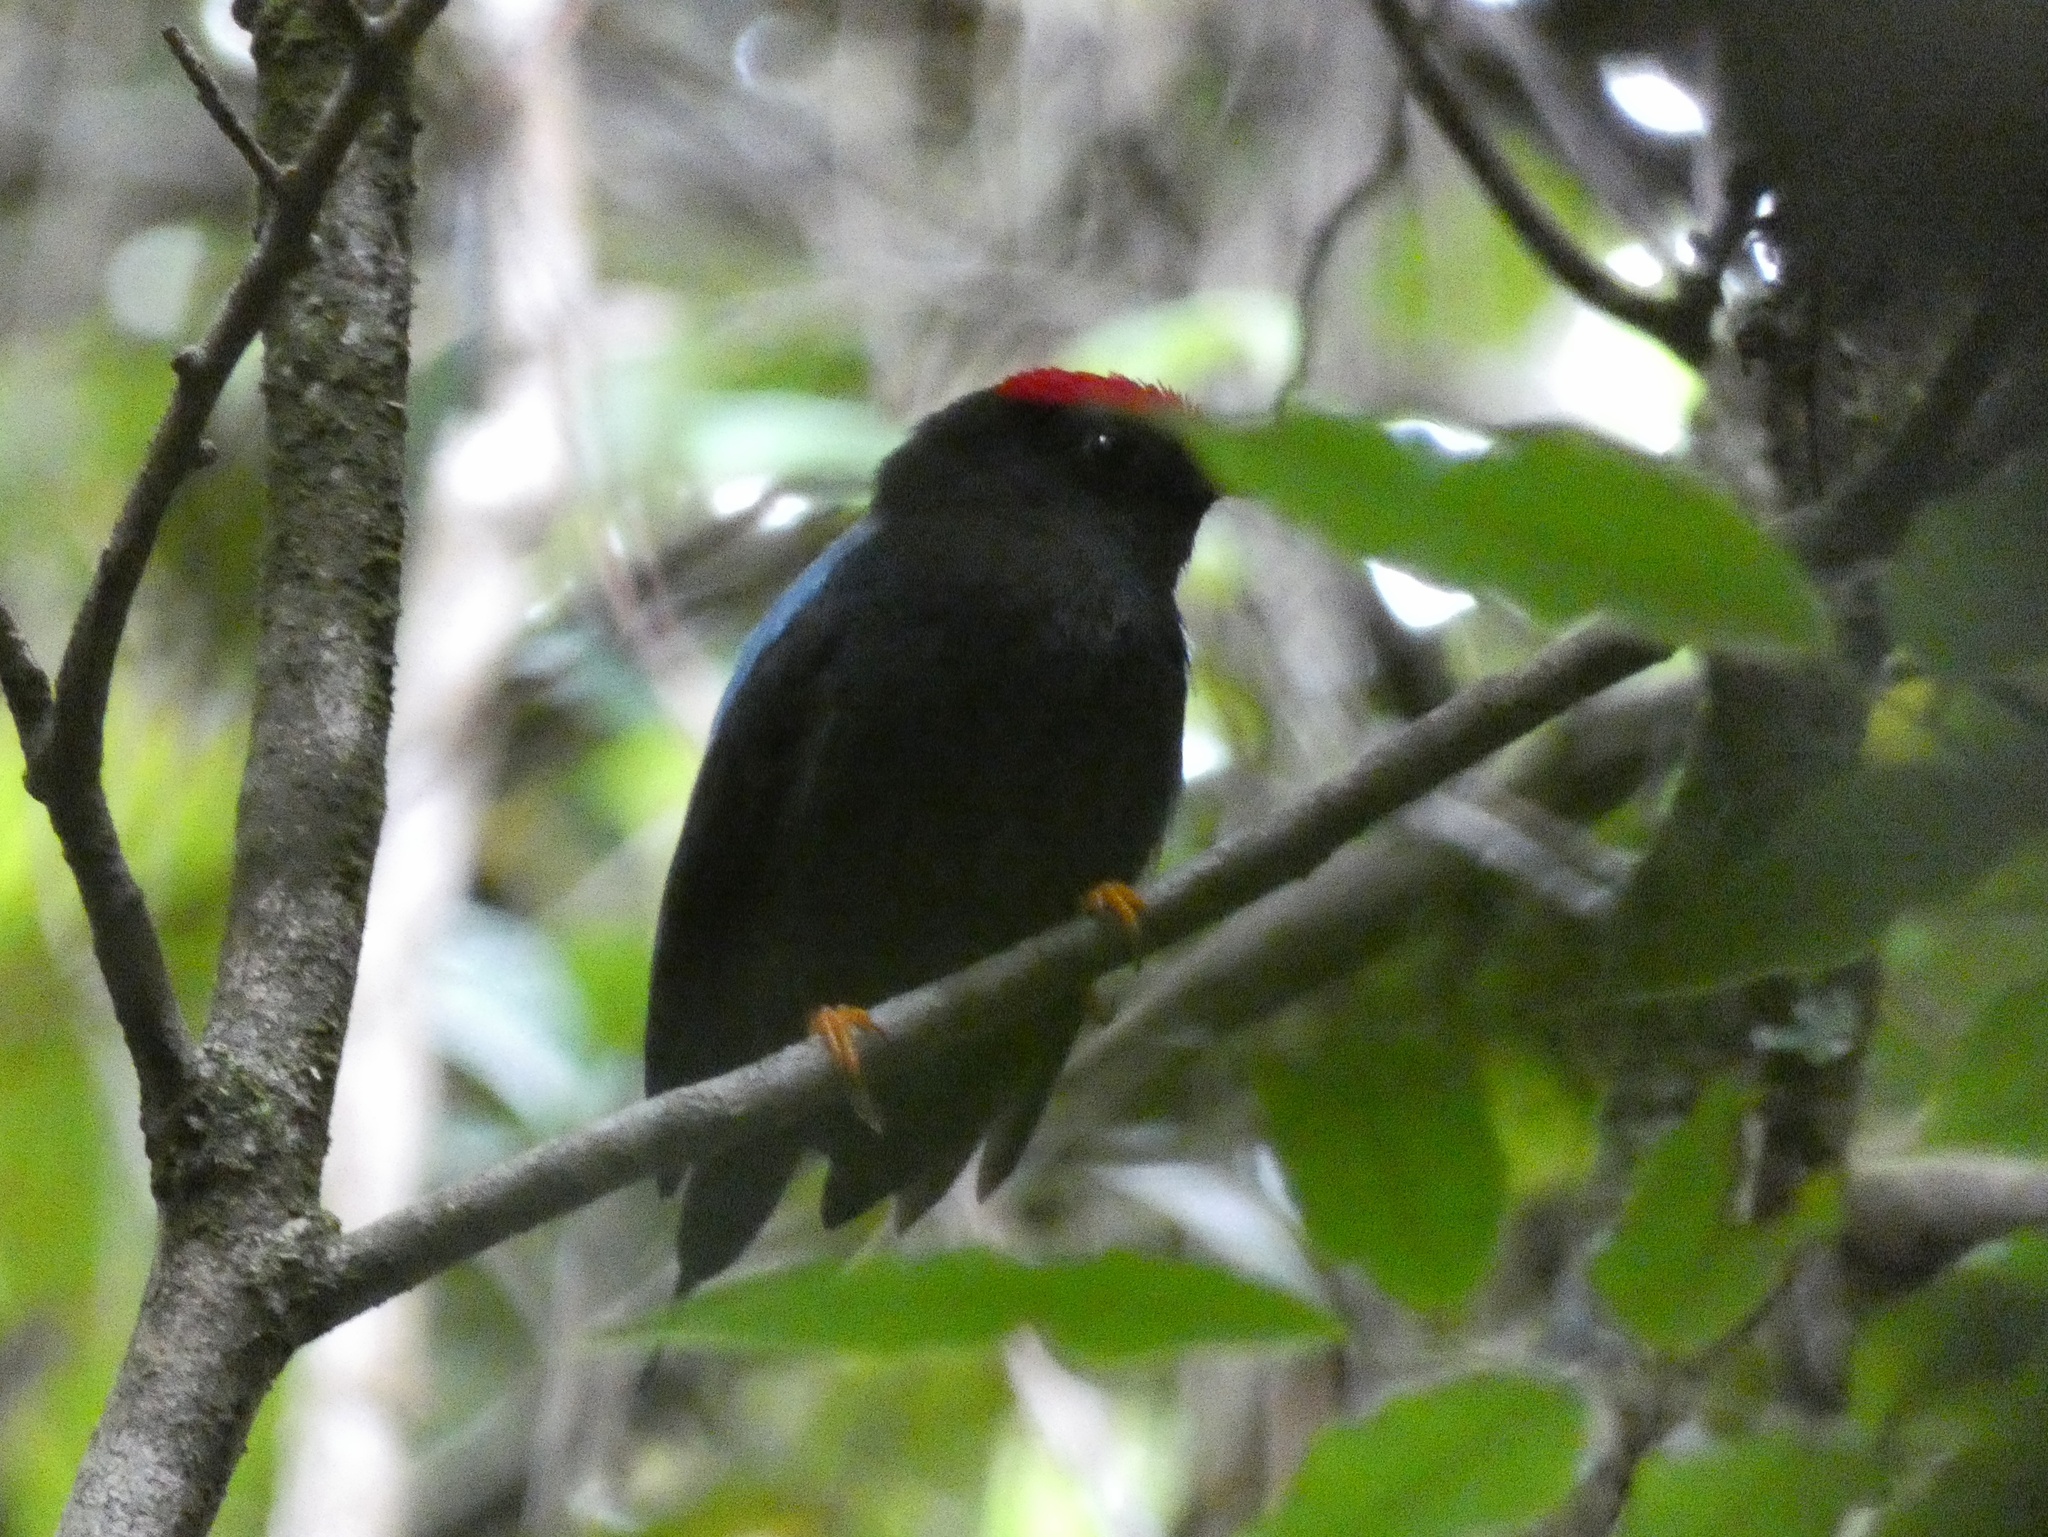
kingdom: Animalia
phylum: Chordata
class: Aves
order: Passeriformes
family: Pipridae
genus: Chiroxiphia
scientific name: Chiroxiphia lanceolata
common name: Lance-tailed manakin
